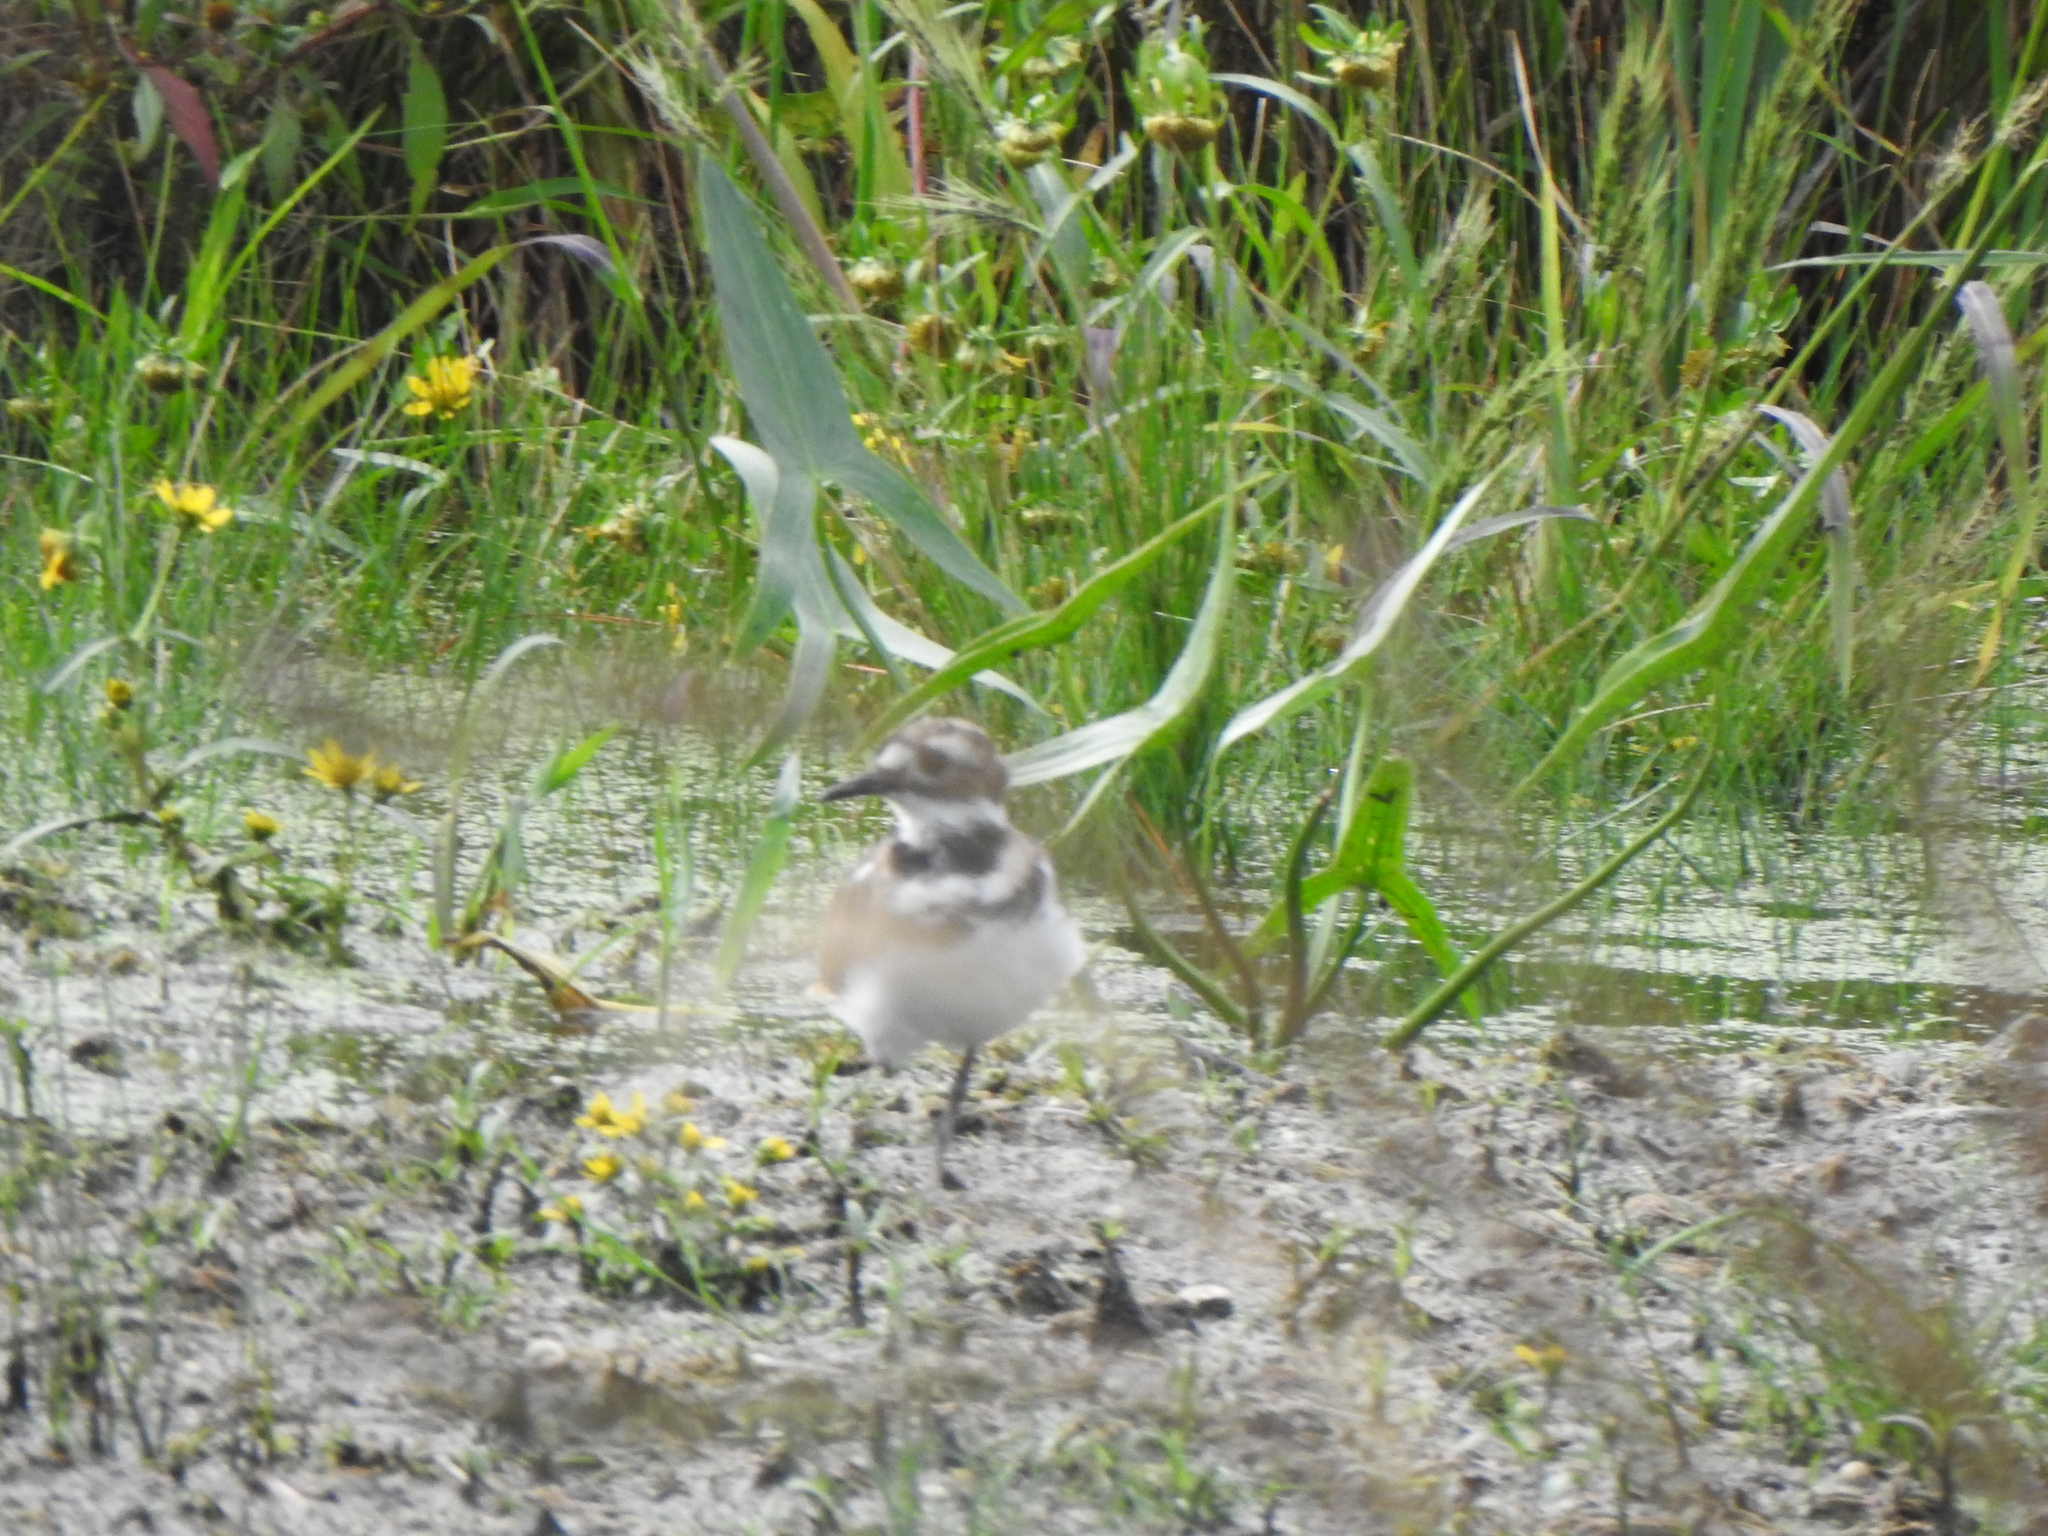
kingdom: Animalia
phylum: Chordata
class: Aves
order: Charadriiformes
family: Charadriidae
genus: Charadrius
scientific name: Charadrius vociferus
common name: Killdeer
